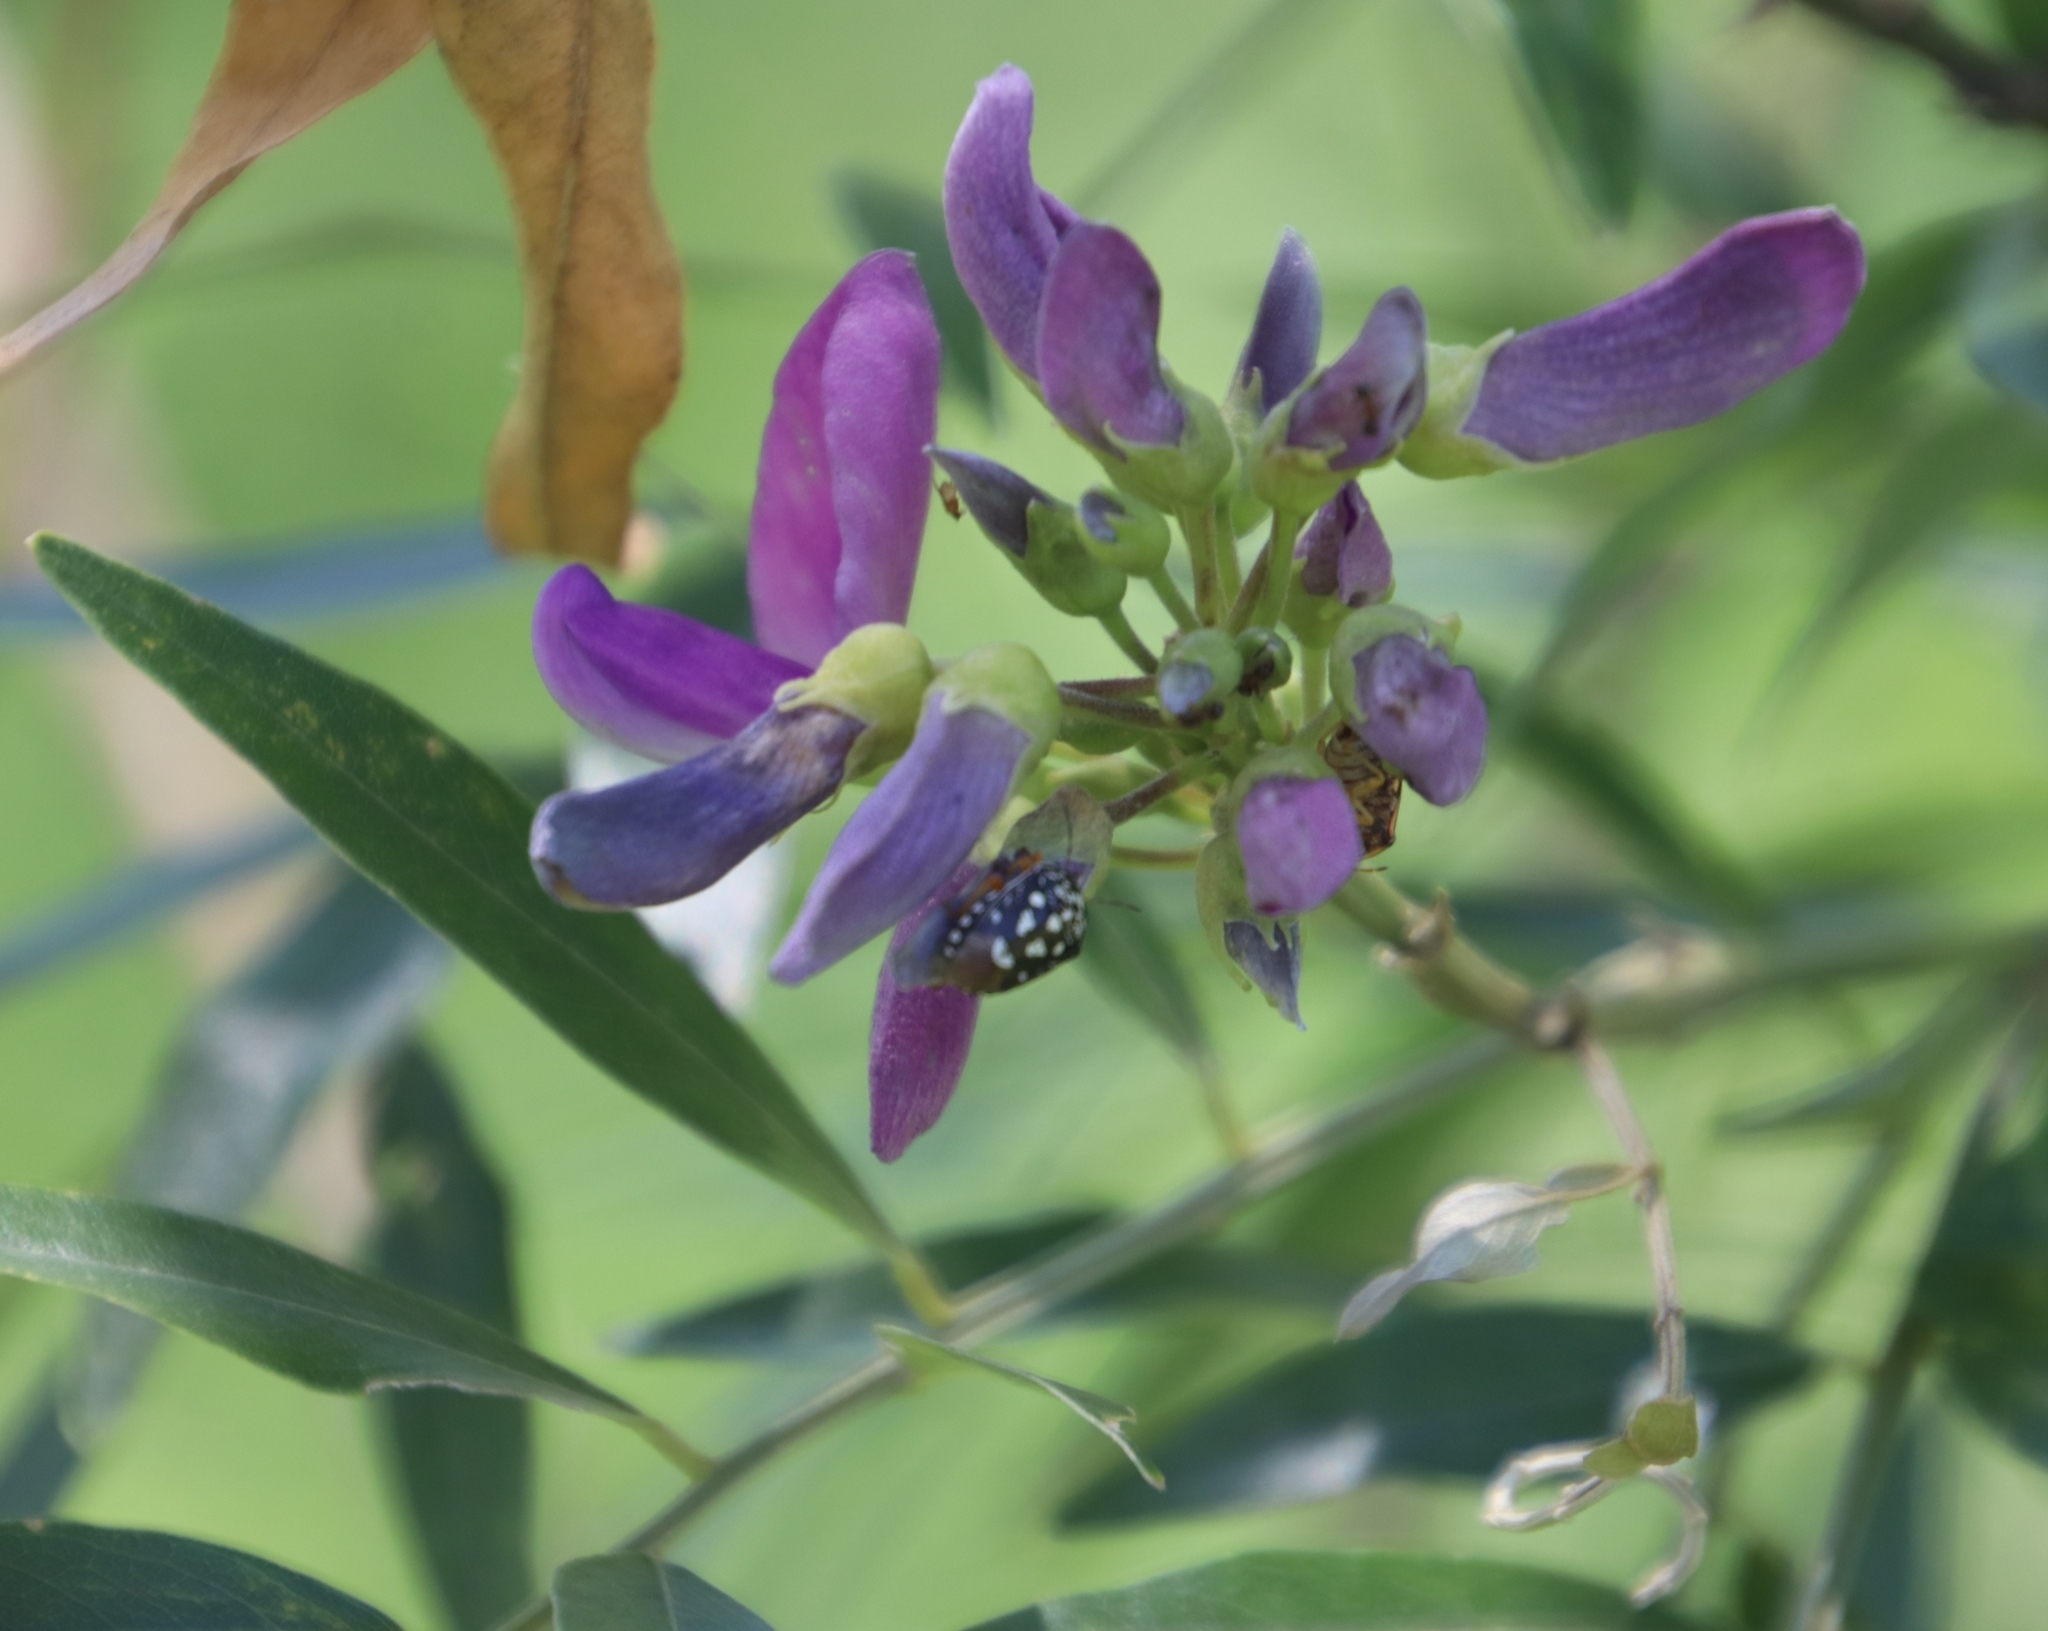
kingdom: Plantae
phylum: Tracheophyta
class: Magnoliopsida
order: Fabales
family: Fabaceae
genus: Mundulea
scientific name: Mundulea sericea
